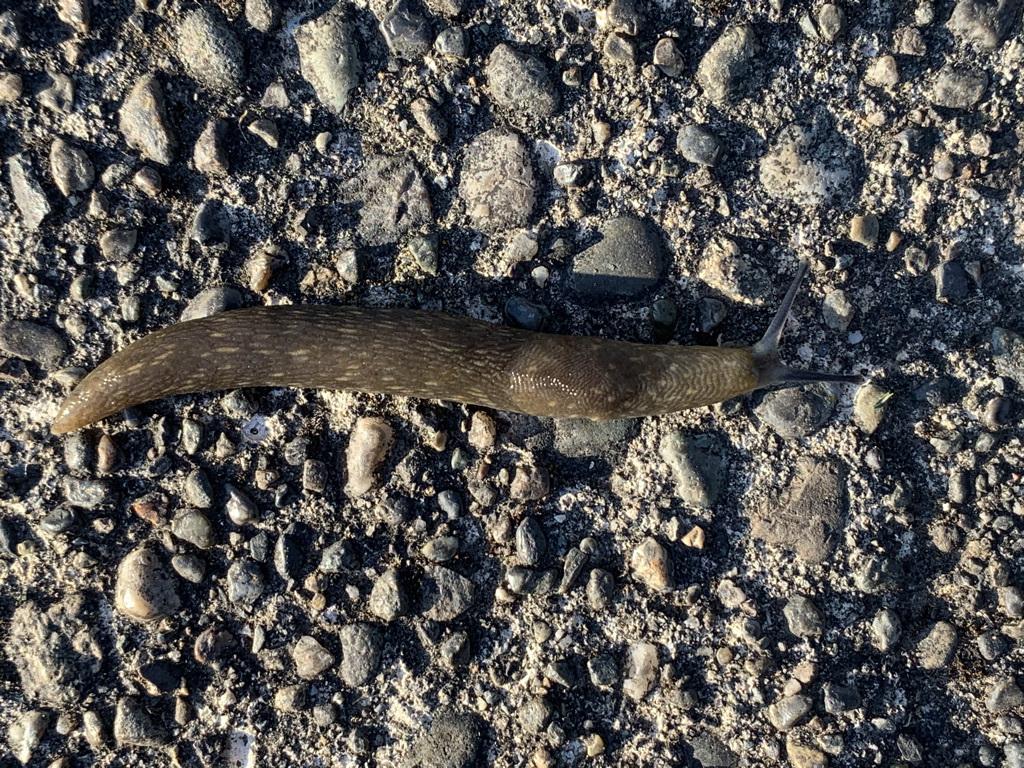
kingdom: Animalia
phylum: Mollusca
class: Gastropoda
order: Stylommatophora
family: Limacidae
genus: Limacus
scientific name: Limacus flavus
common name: Yellow gardenslug
